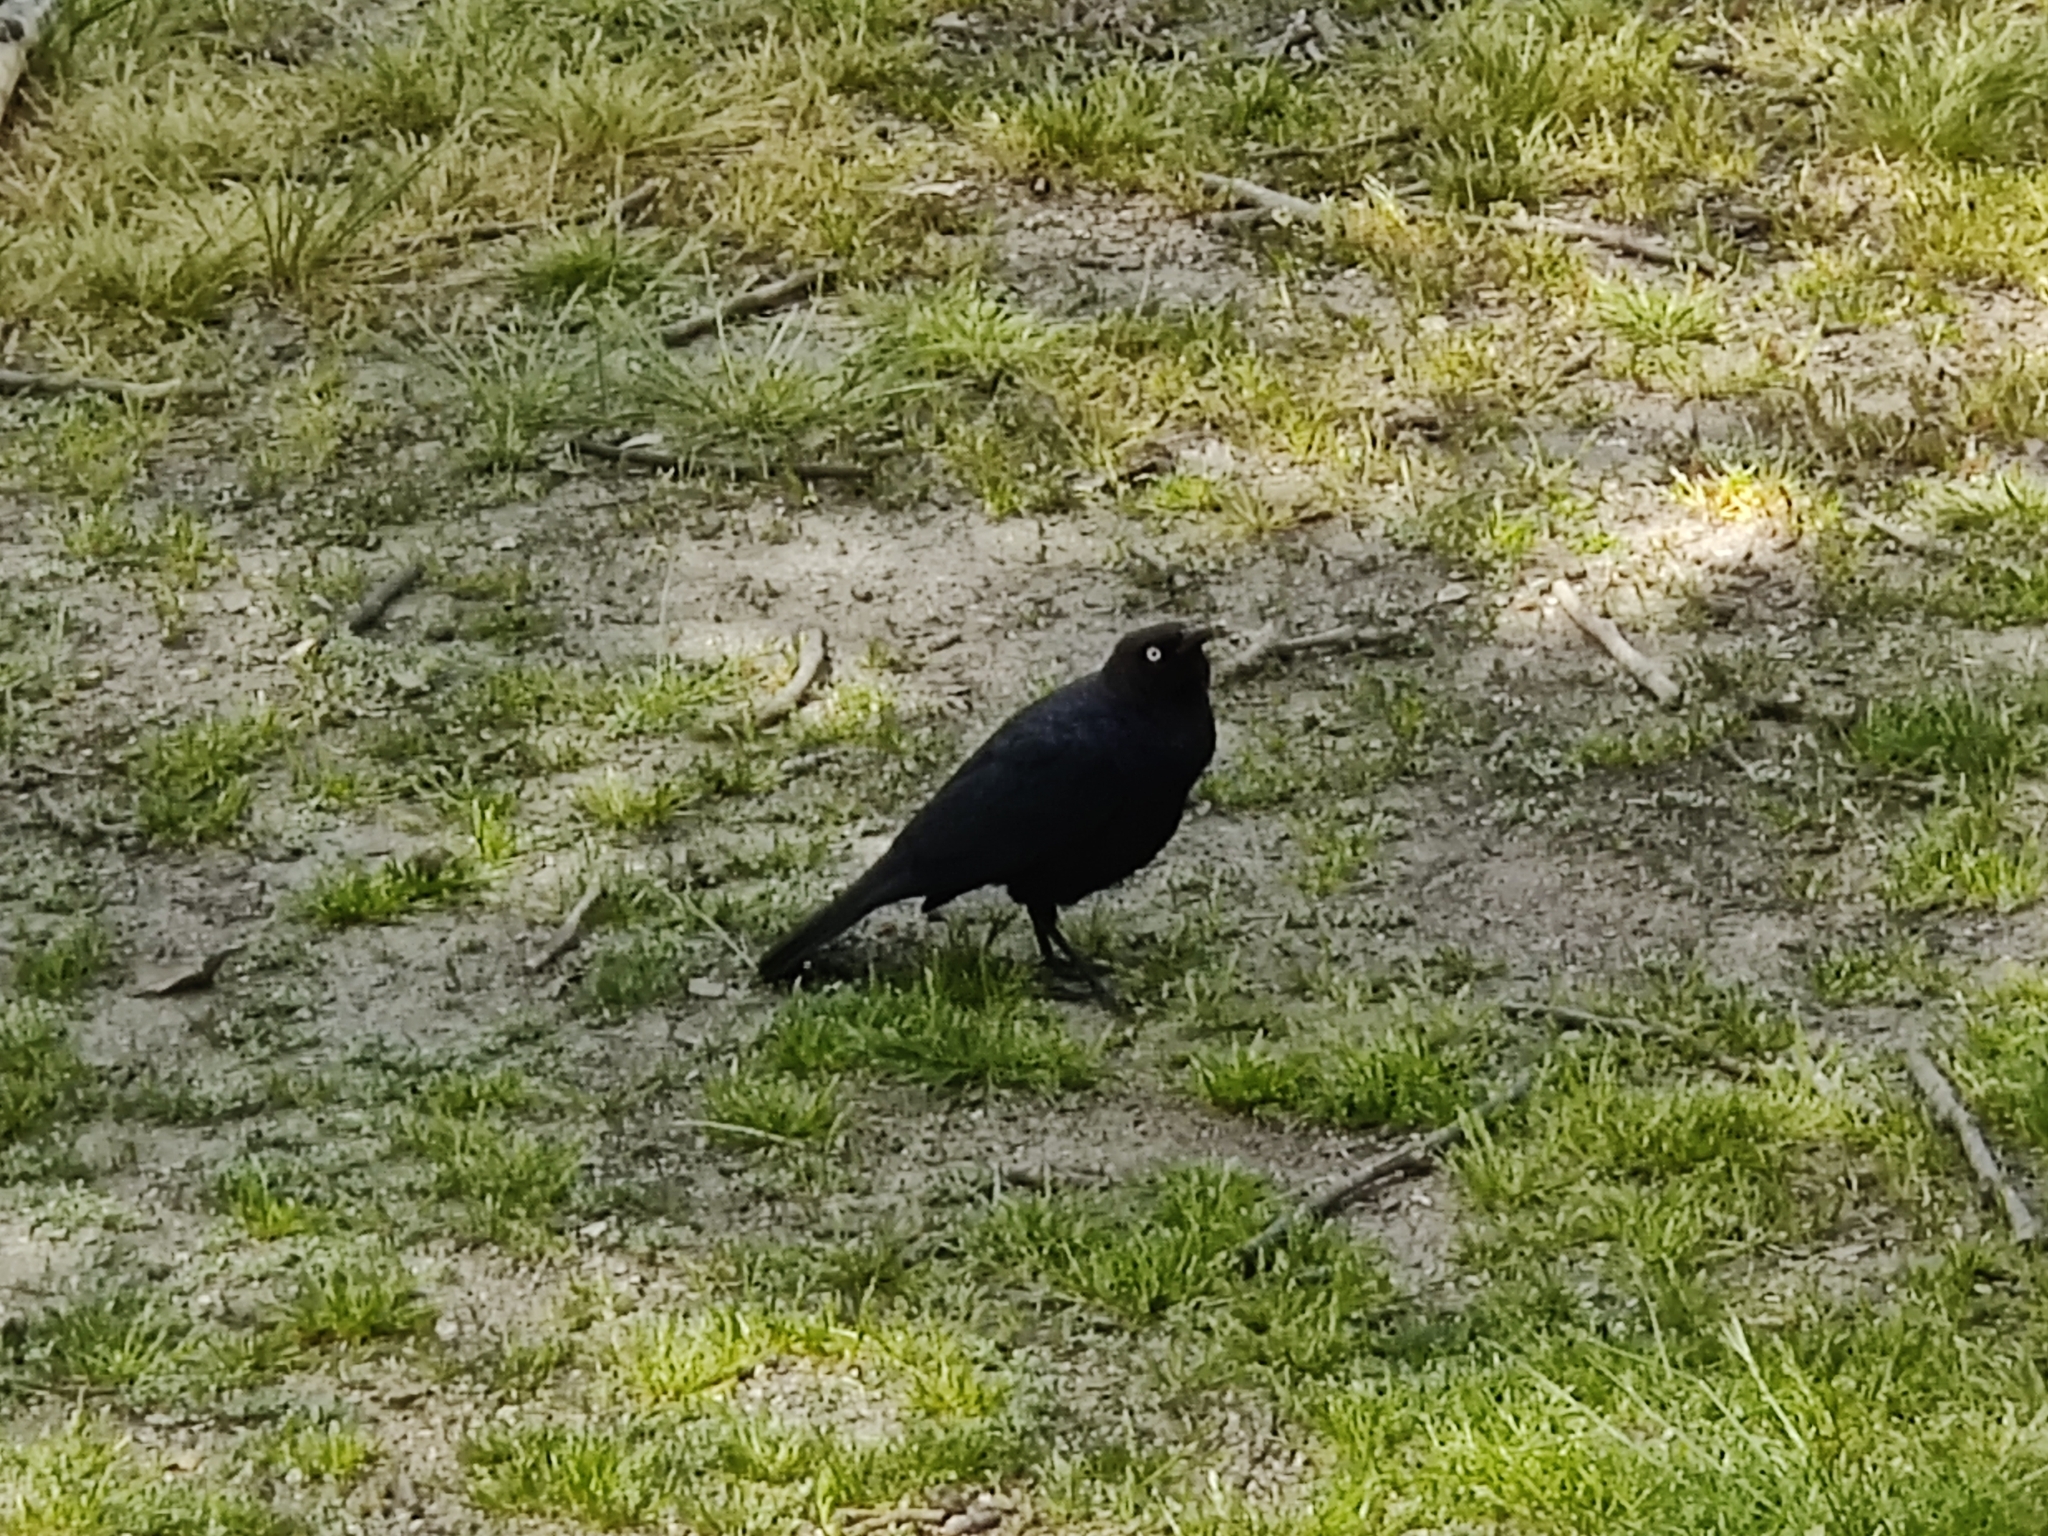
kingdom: Animalia
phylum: Chordata
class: Aves
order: Passeriformes
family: Icteridae
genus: Euphagus
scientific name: Euphagus cyanocephalus
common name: Brewer's blackbird
